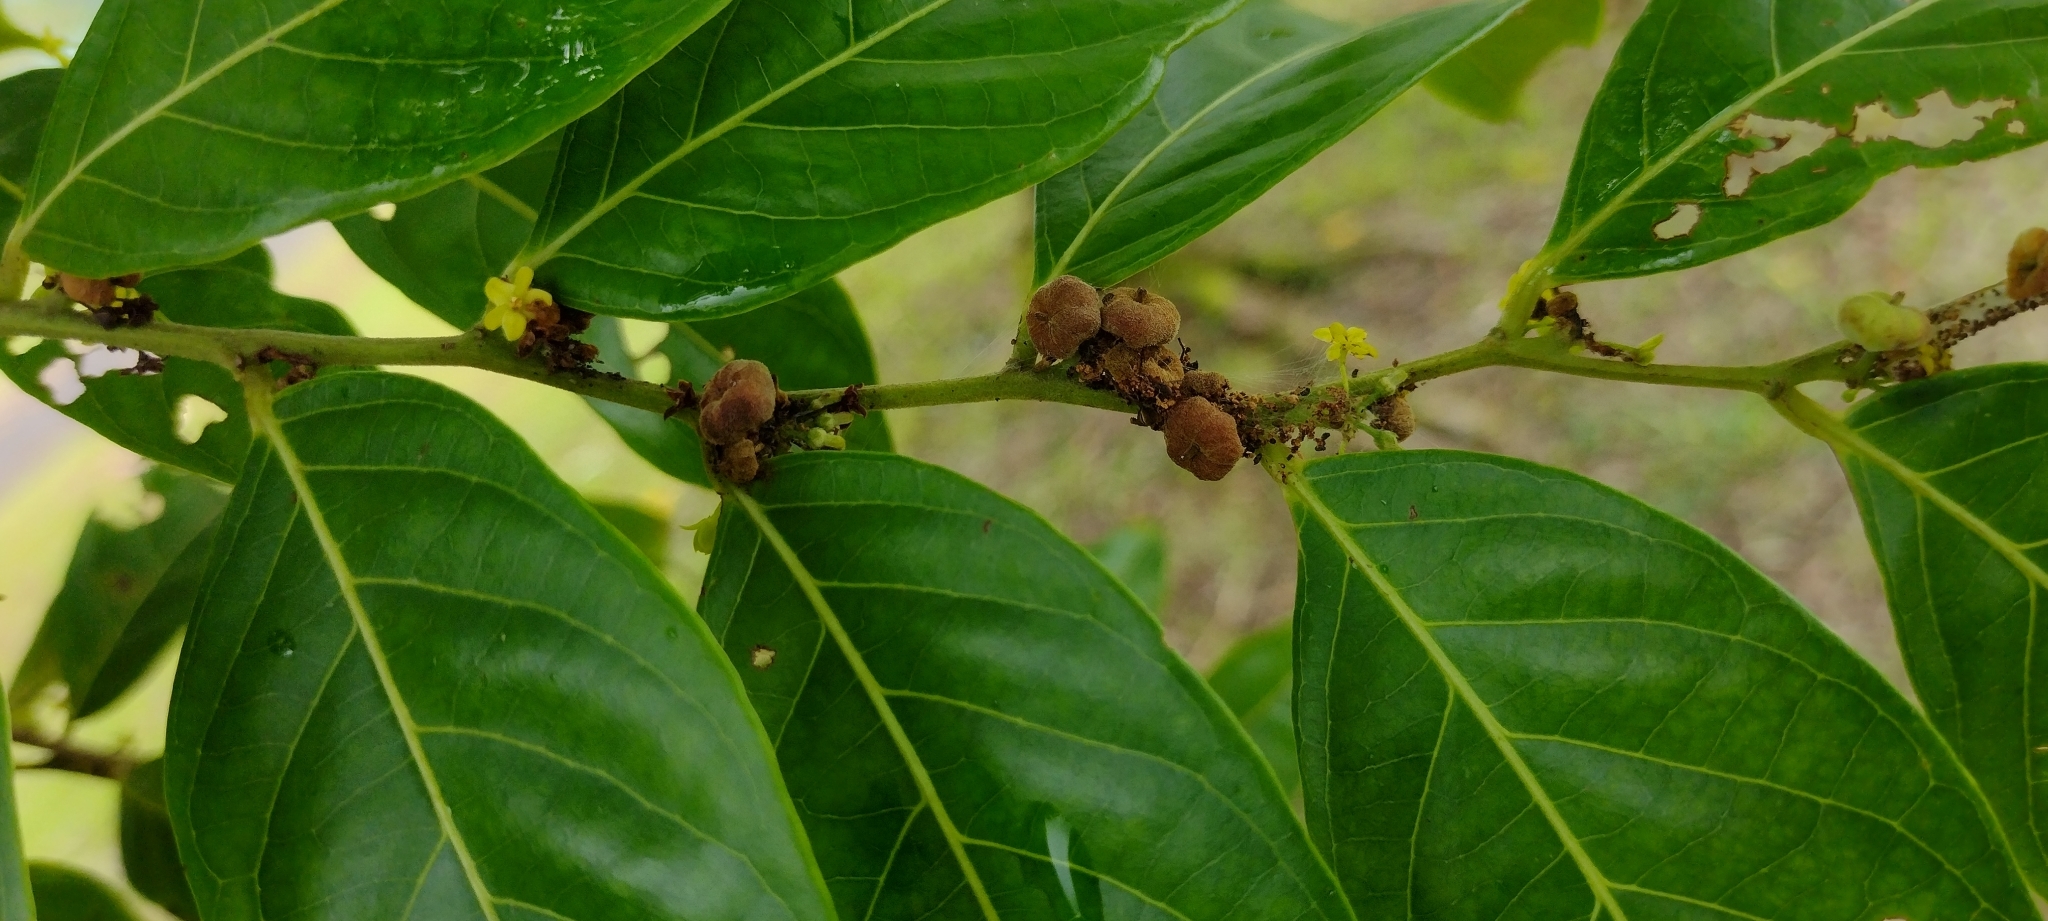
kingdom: Plantae
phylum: Tracheophyta
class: Magnoliopsida
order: Malpighiales
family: Phyllanthaceae
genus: Glochidion
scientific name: Glochidion ramiflorum
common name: Masame
